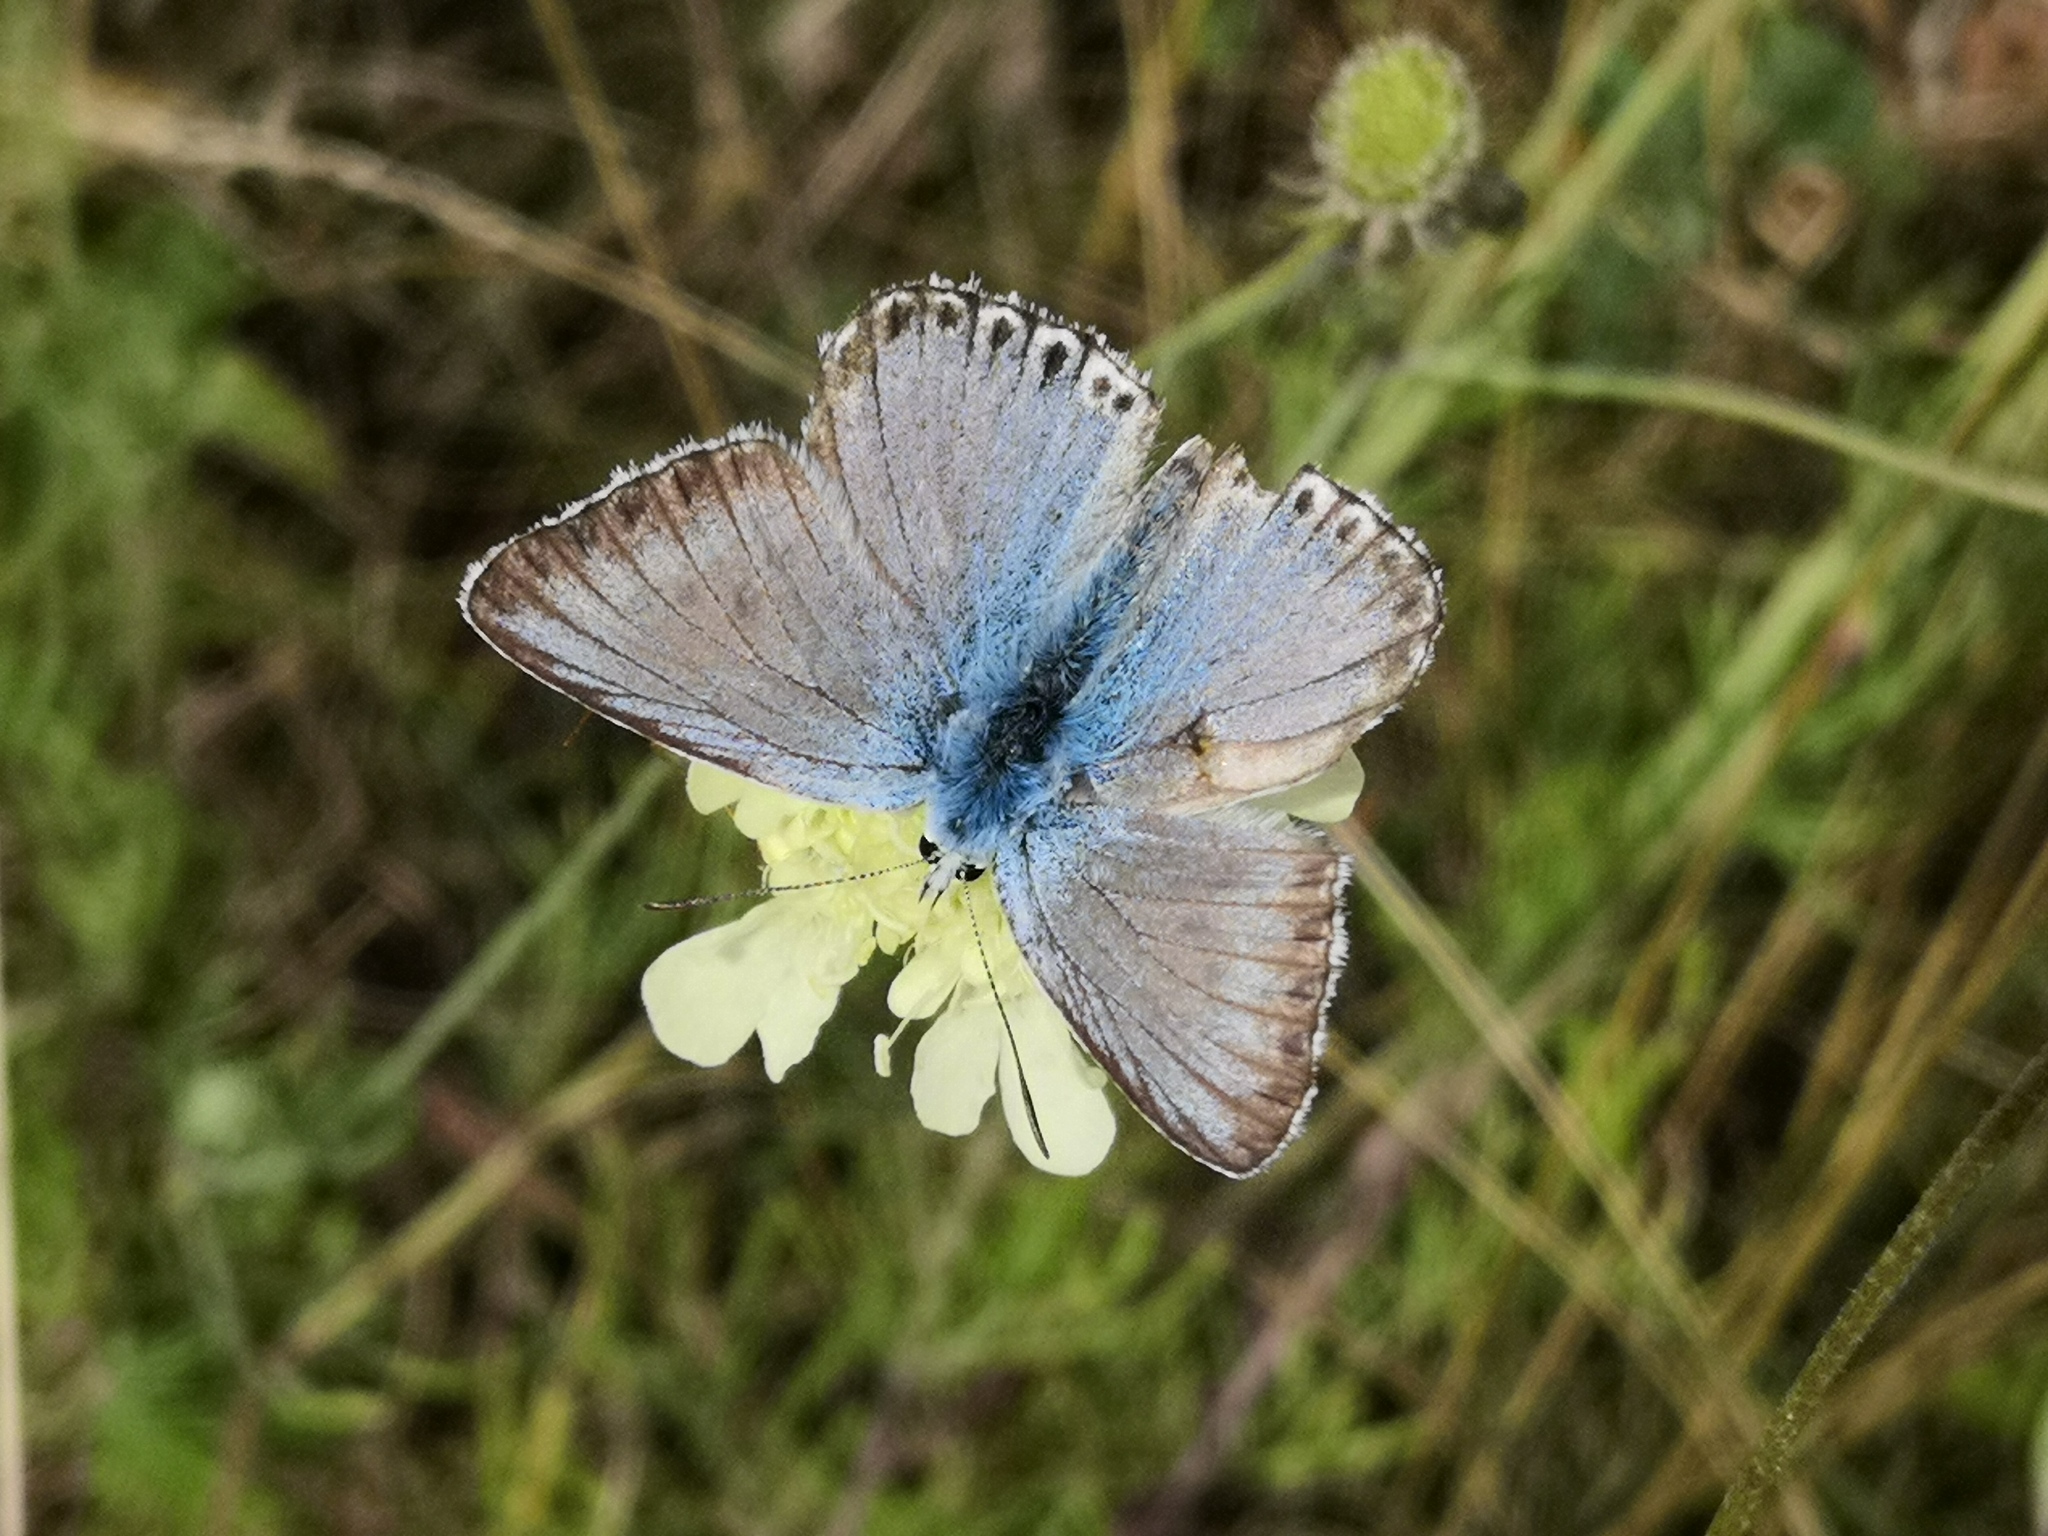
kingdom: Animalia
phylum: Arthropoda
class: Insecta
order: Lepidoptera
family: Lycaenidae
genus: Lysandra
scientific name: Lysandra coridon
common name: Chalkhill blue
